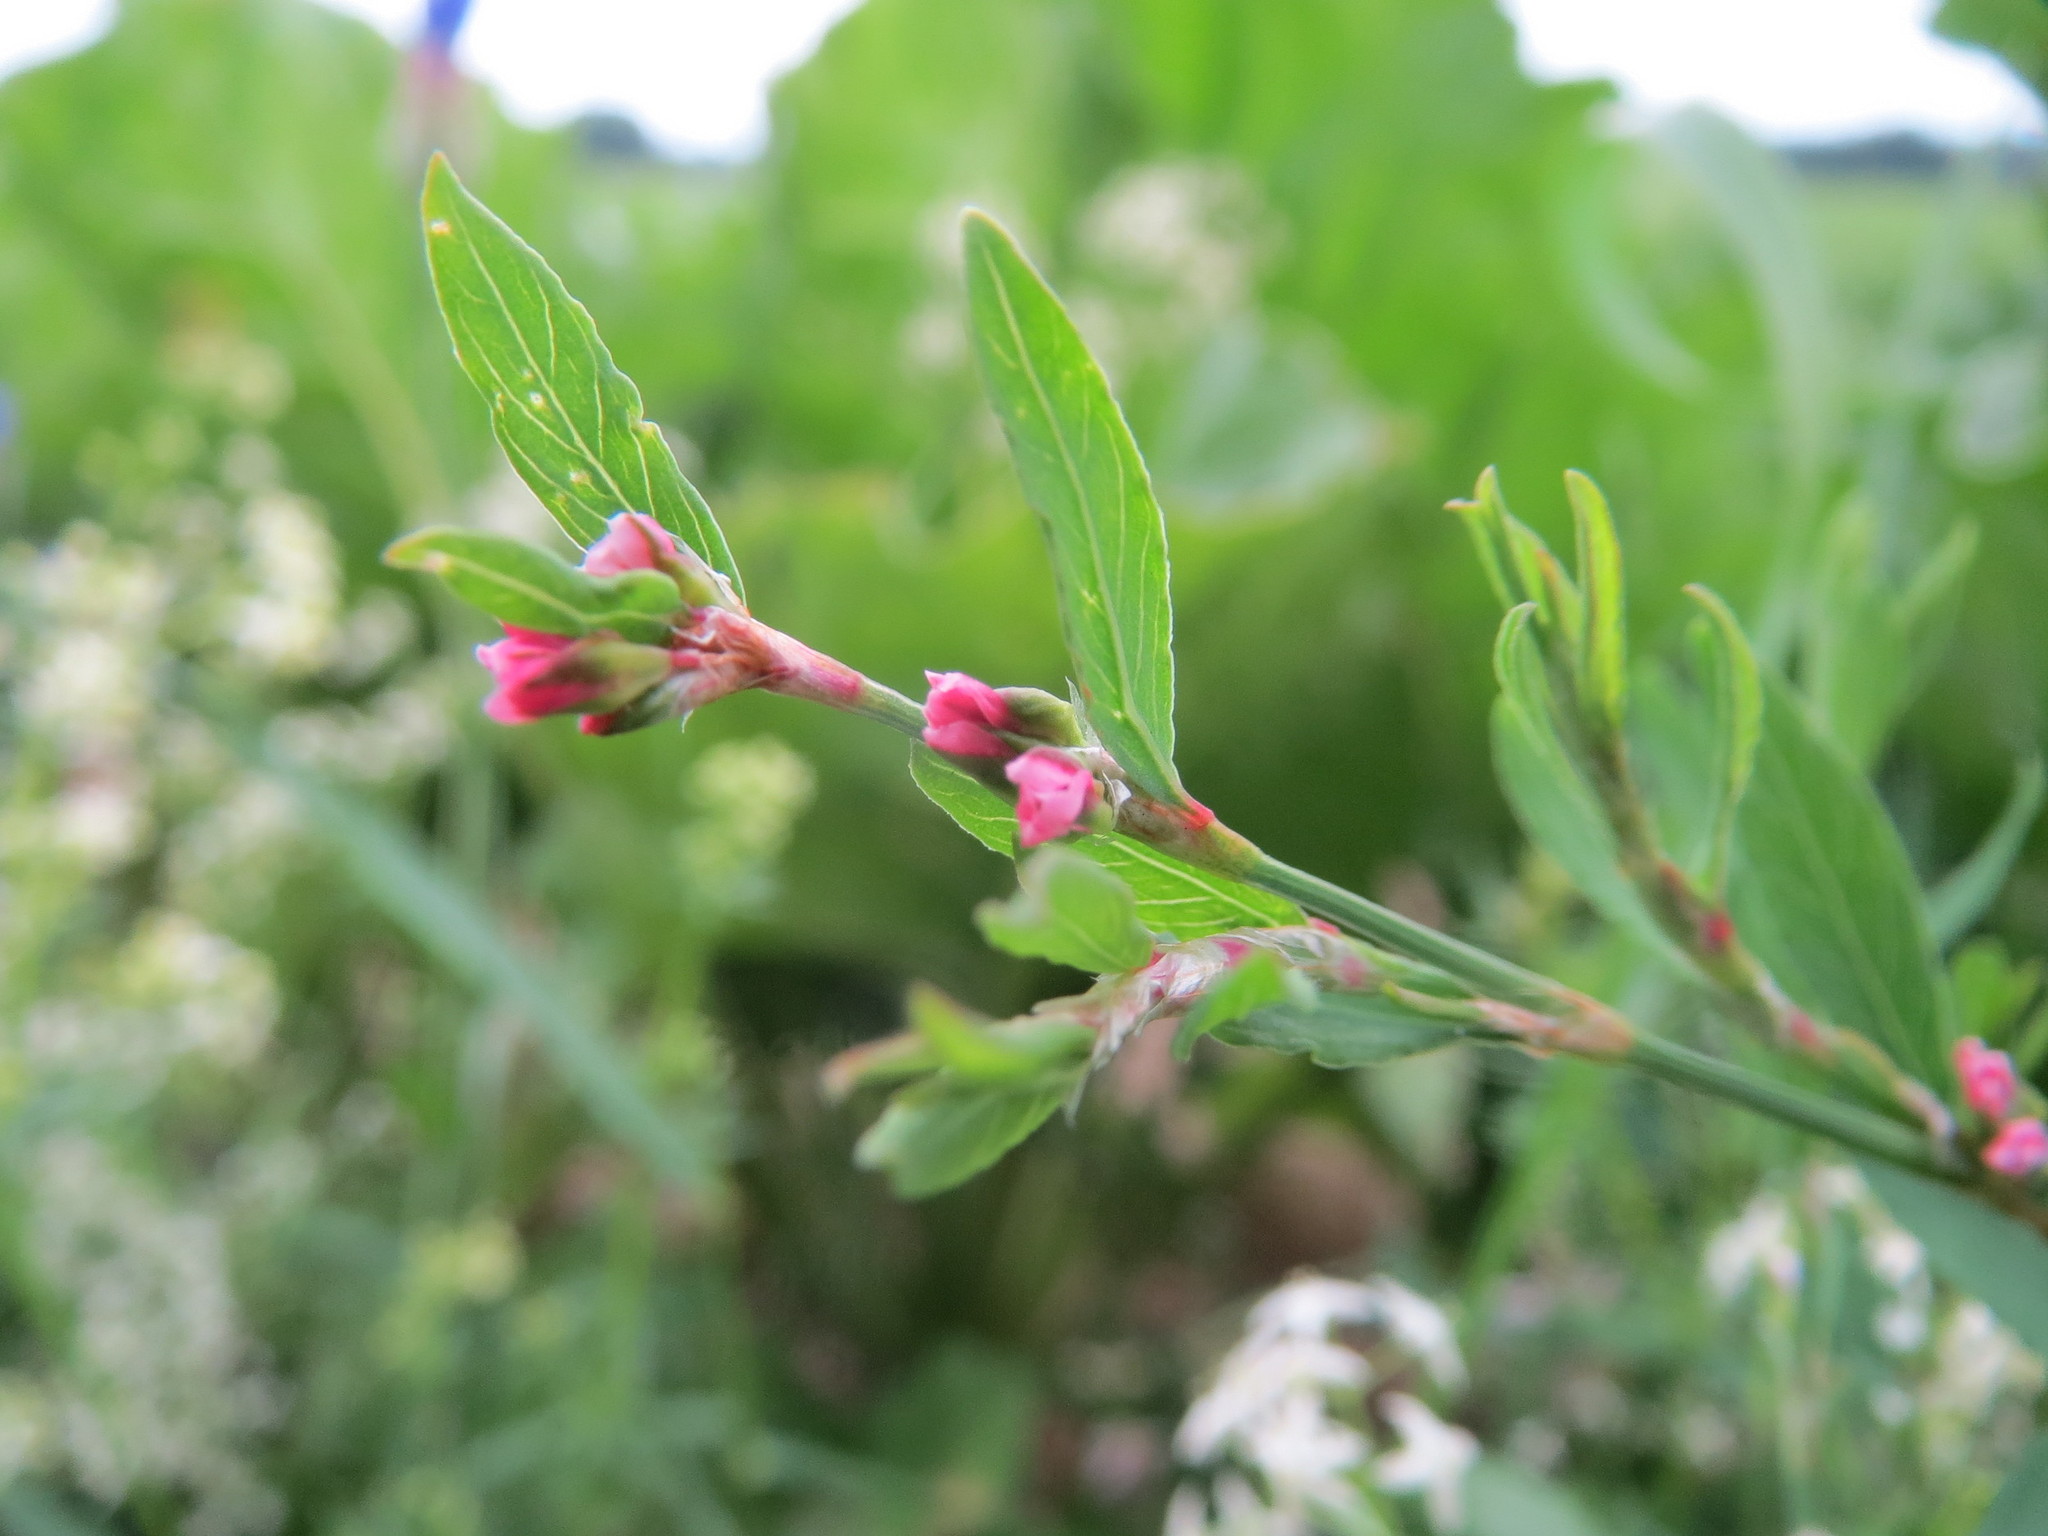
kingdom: Plantae
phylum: Tracheophyta
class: Magnoliopsida
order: Caryophyllales
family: Polygonaceae
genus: Polygonum
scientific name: Polygonum aviculare
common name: Prostrate knotweed
